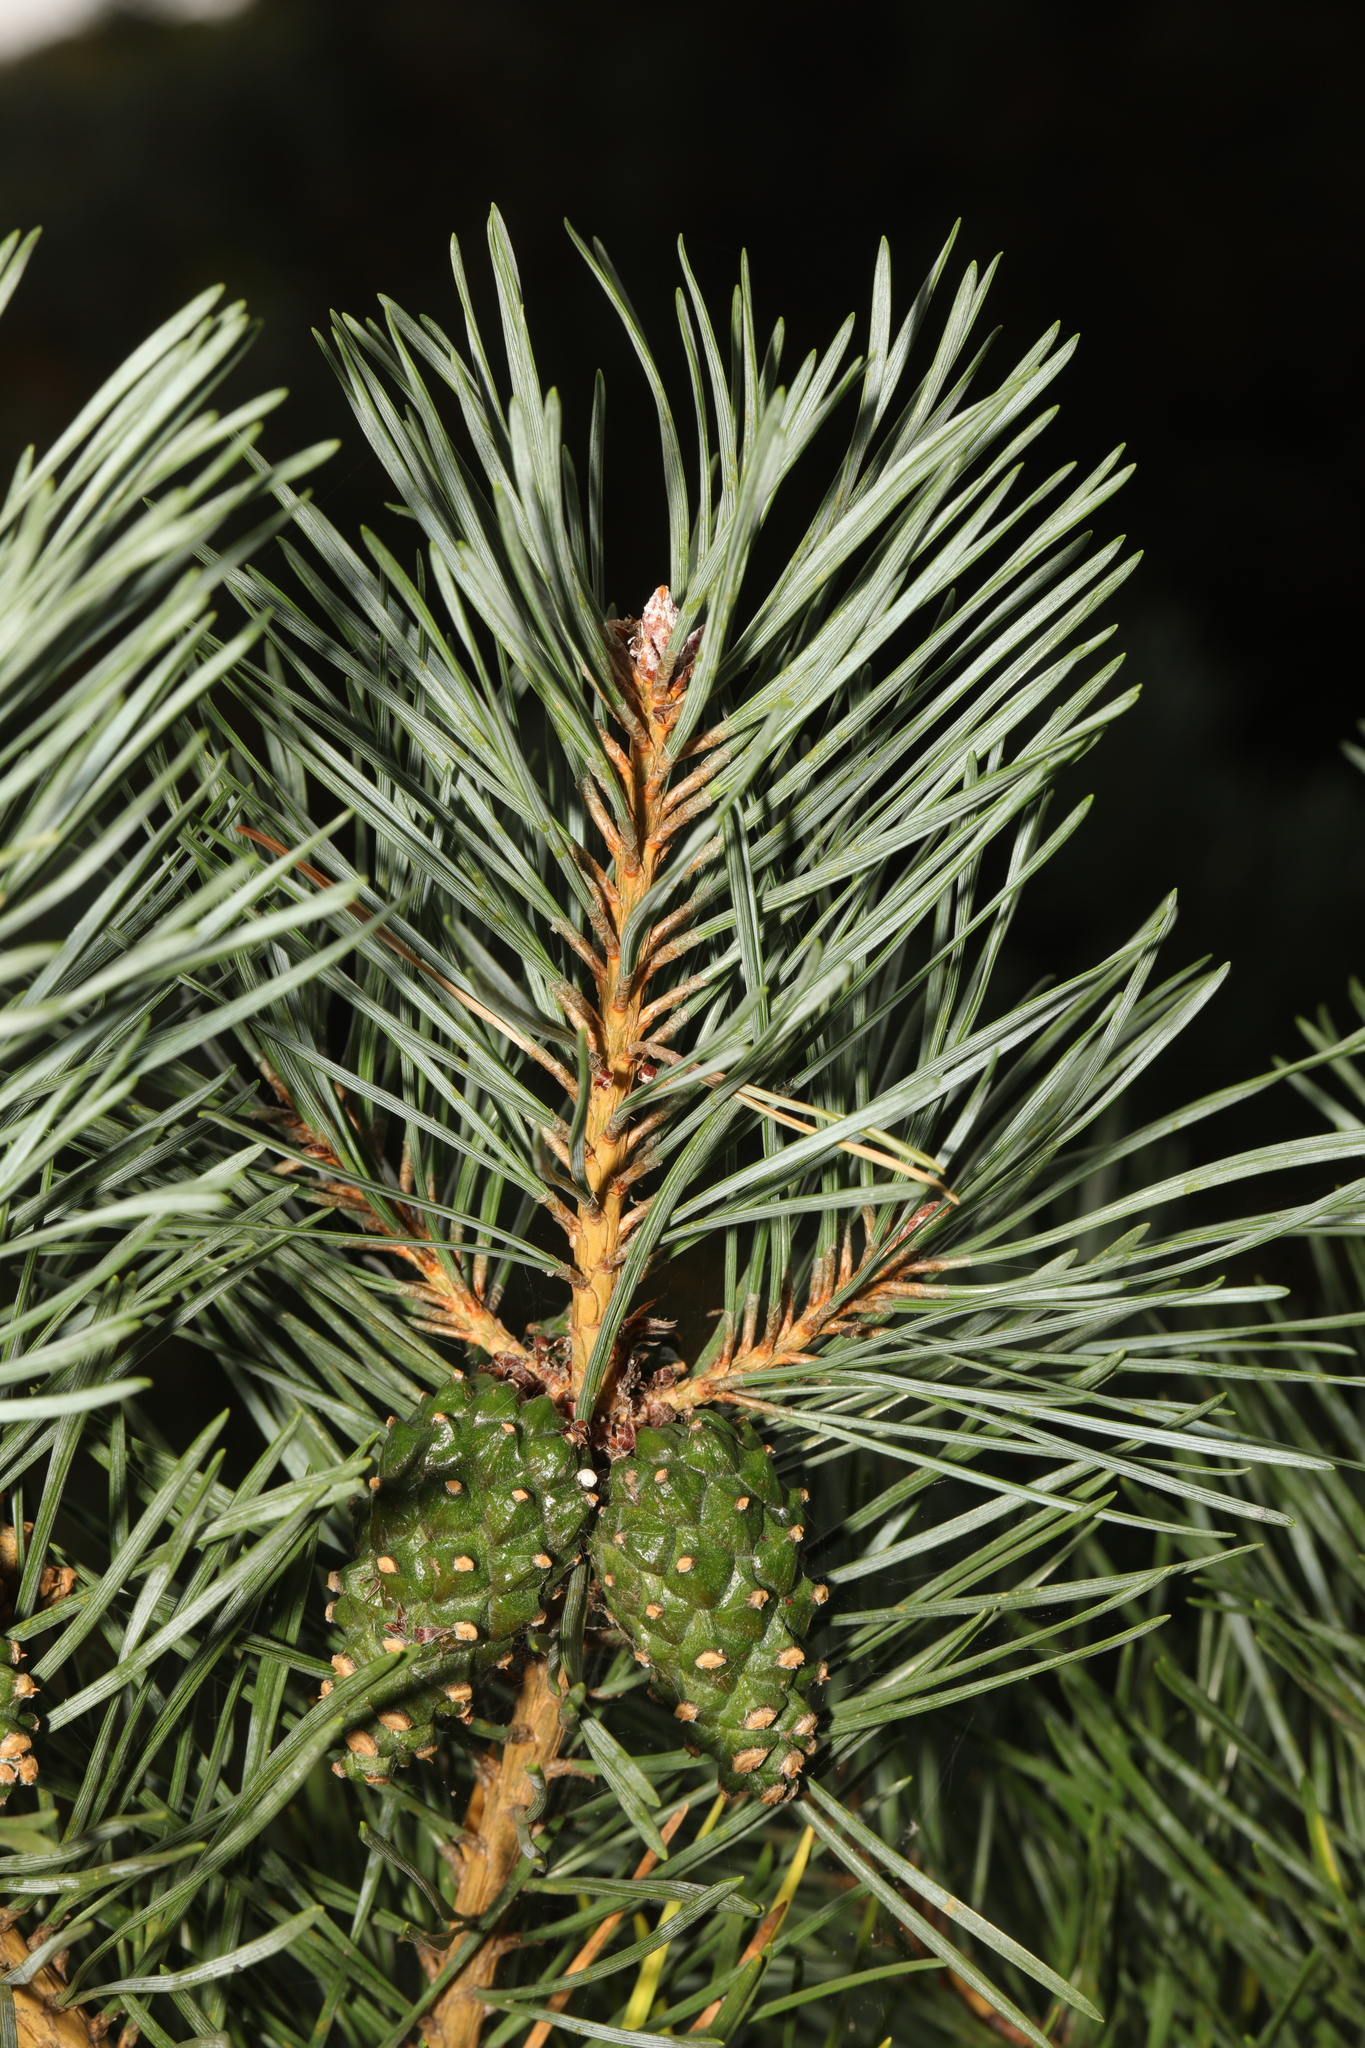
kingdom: Plantae
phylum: Tracheophyta
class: Pinopsida
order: Pinales
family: Pinaceae
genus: Pinus
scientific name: Pinus sylvestris
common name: Scots pine
